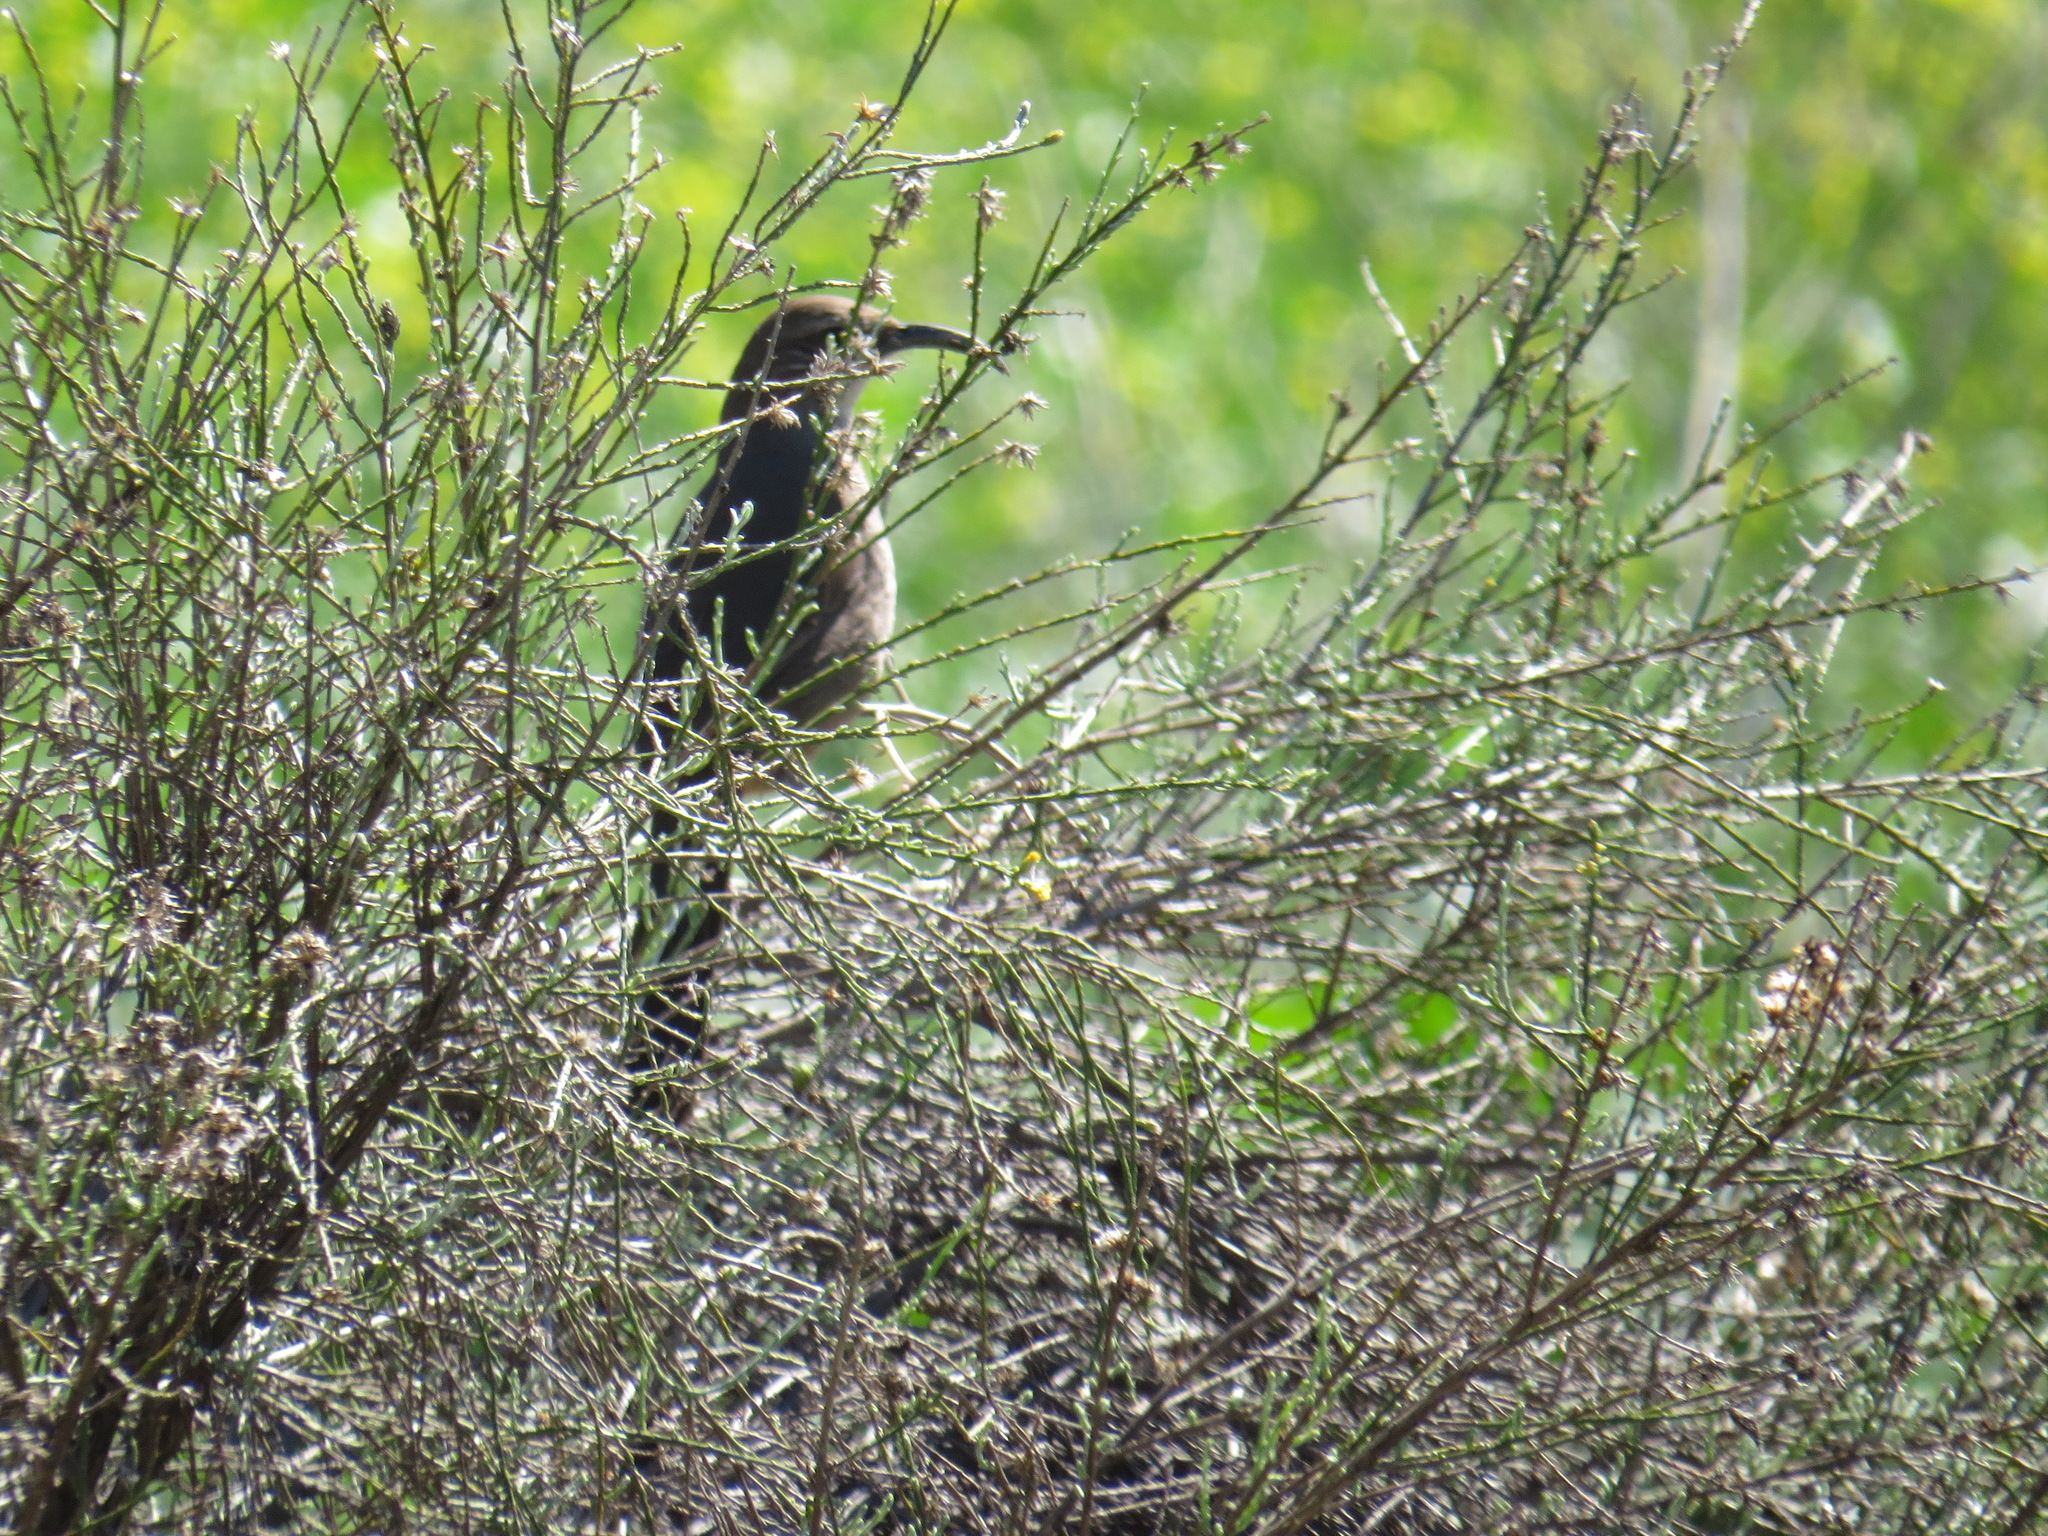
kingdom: Animalia
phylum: Chordata
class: Aves
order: Passeriformes
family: Mimidae
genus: Toxostoma
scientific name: Toxostoma redivivum
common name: California thrasher
